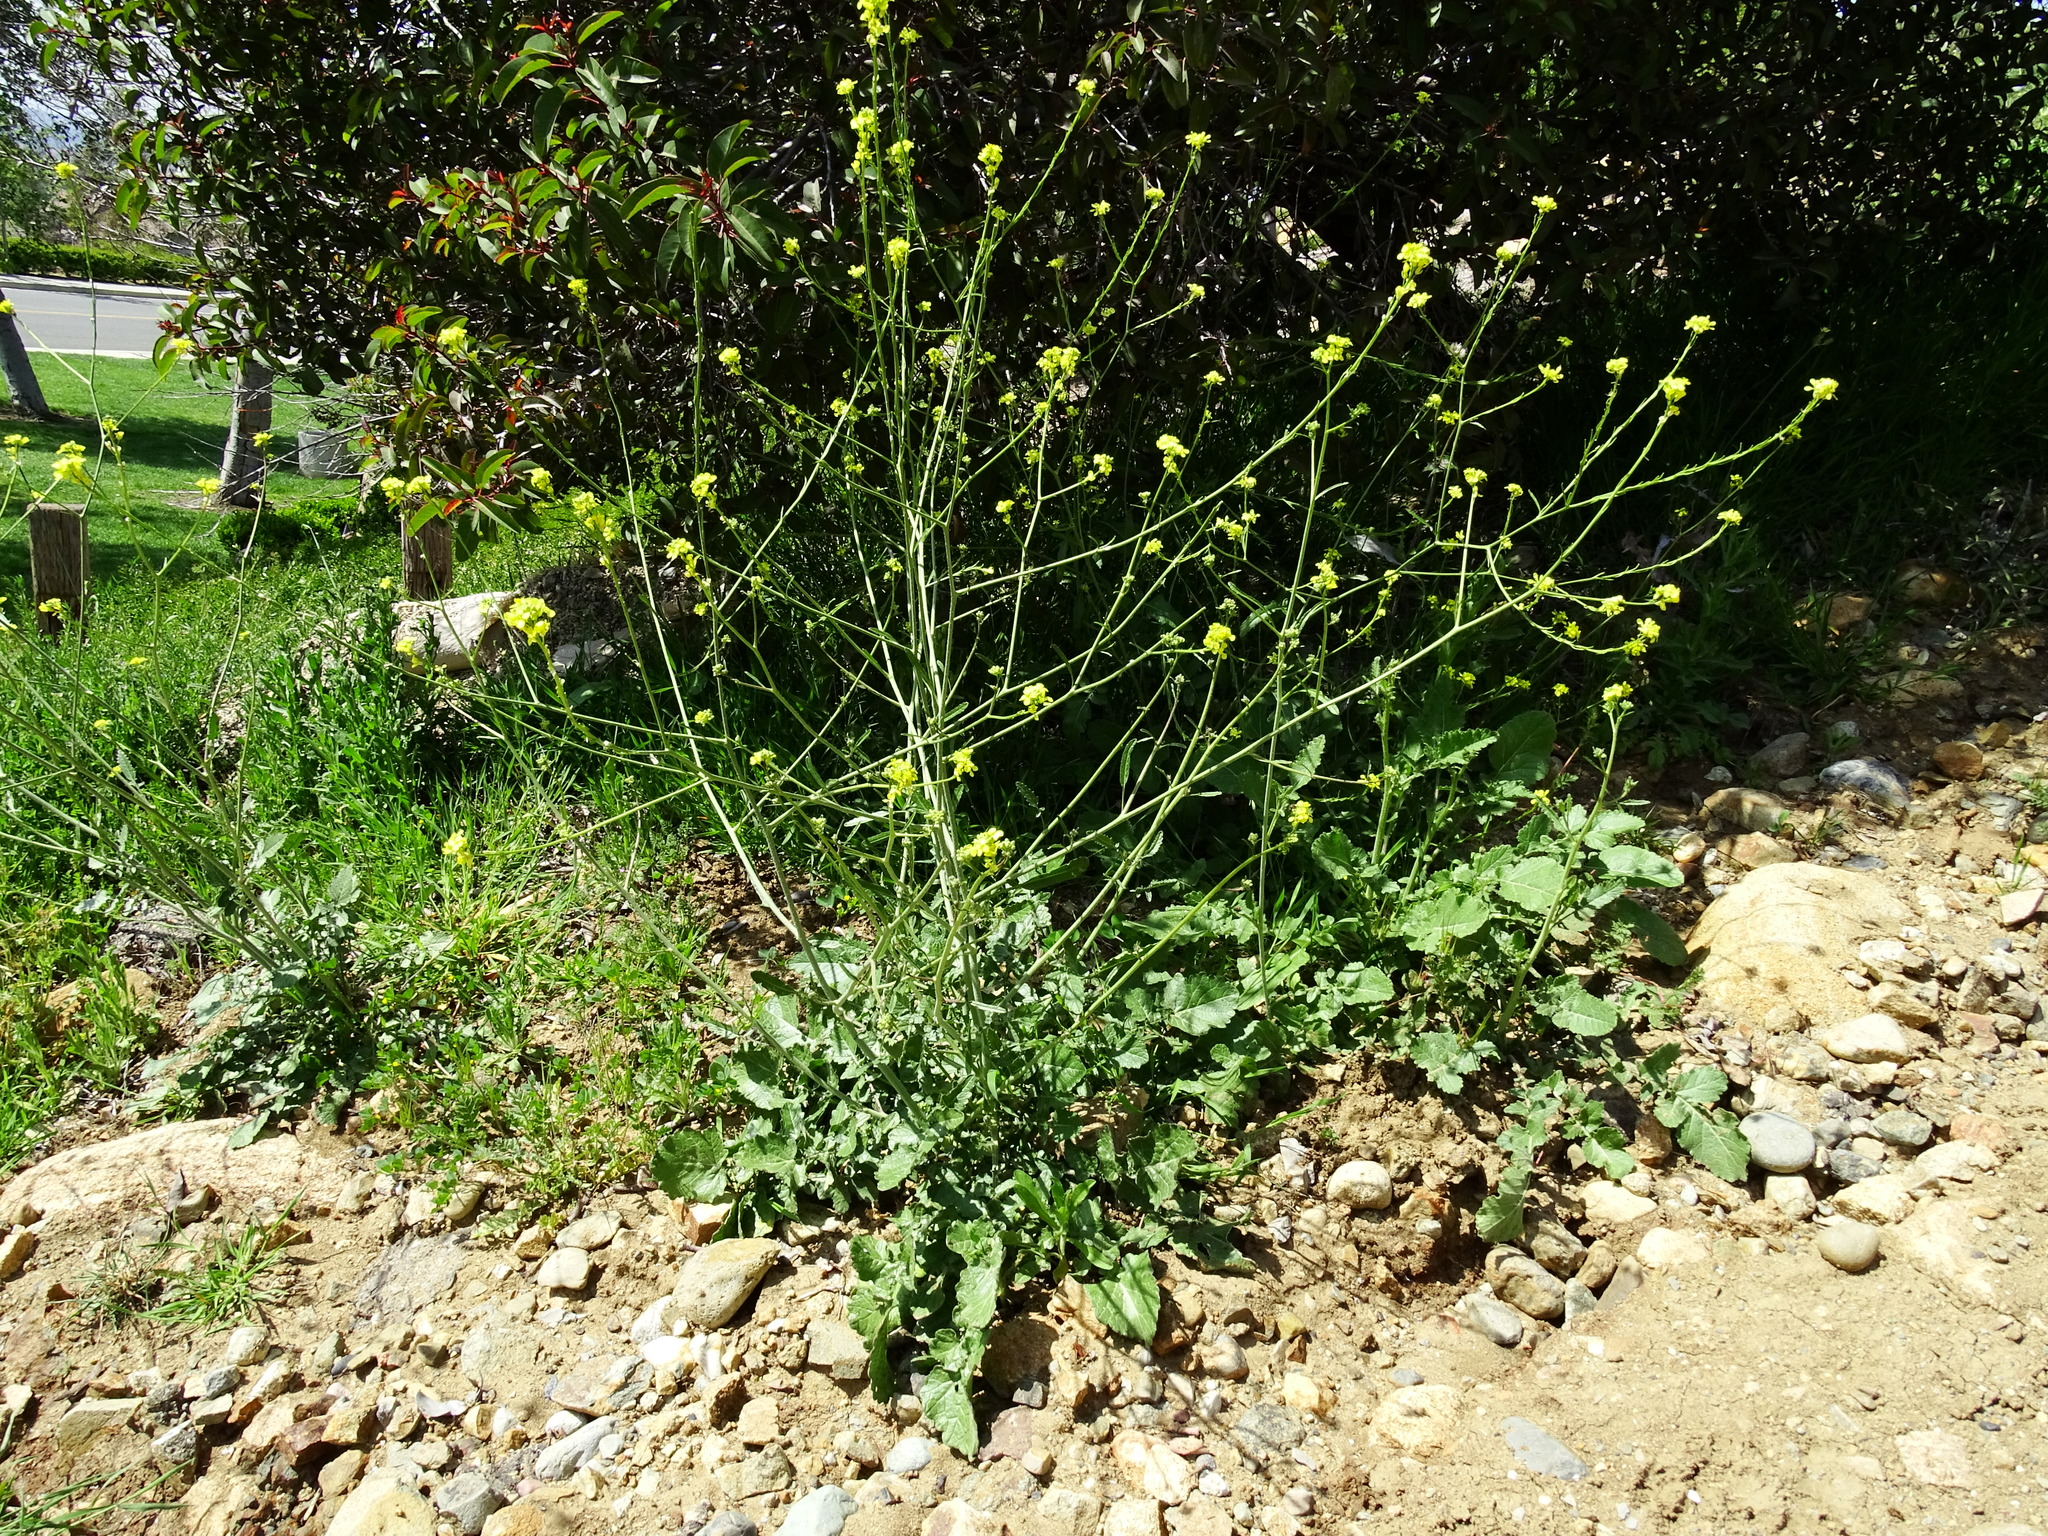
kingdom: Plantae
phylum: Tracheophyta
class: Magnoliopsida
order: Brassicales
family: Brassicaceae
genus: Hirschfeldia
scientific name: Hirschfeldia incana
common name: Hoary mustard
